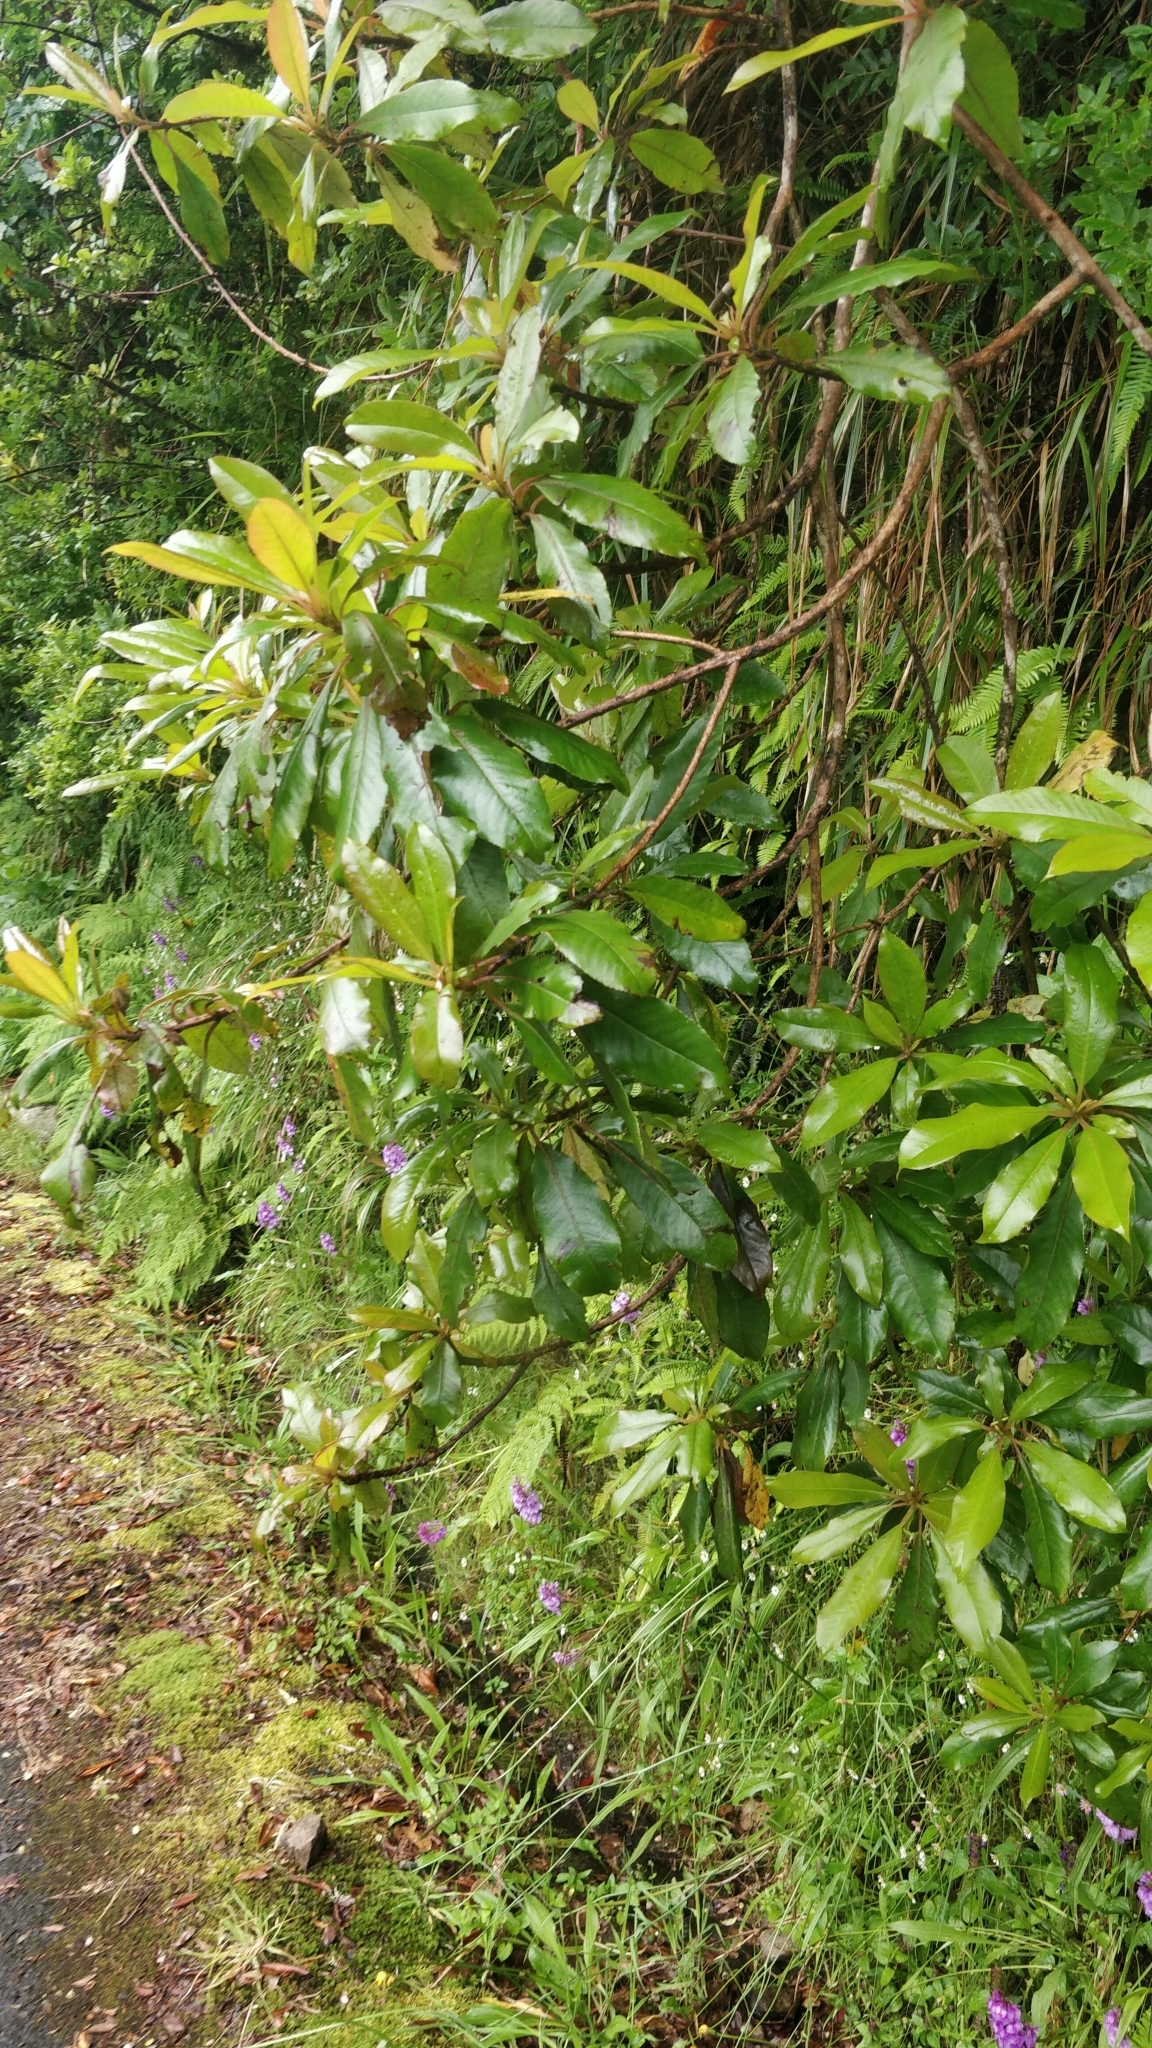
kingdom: Plantae
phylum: Tracheophyta
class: Magnoliopsida
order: Ericales
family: Clethraceae
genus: Clethra
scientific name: Clethra arborea
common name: Lily-of-the-valley-tree
